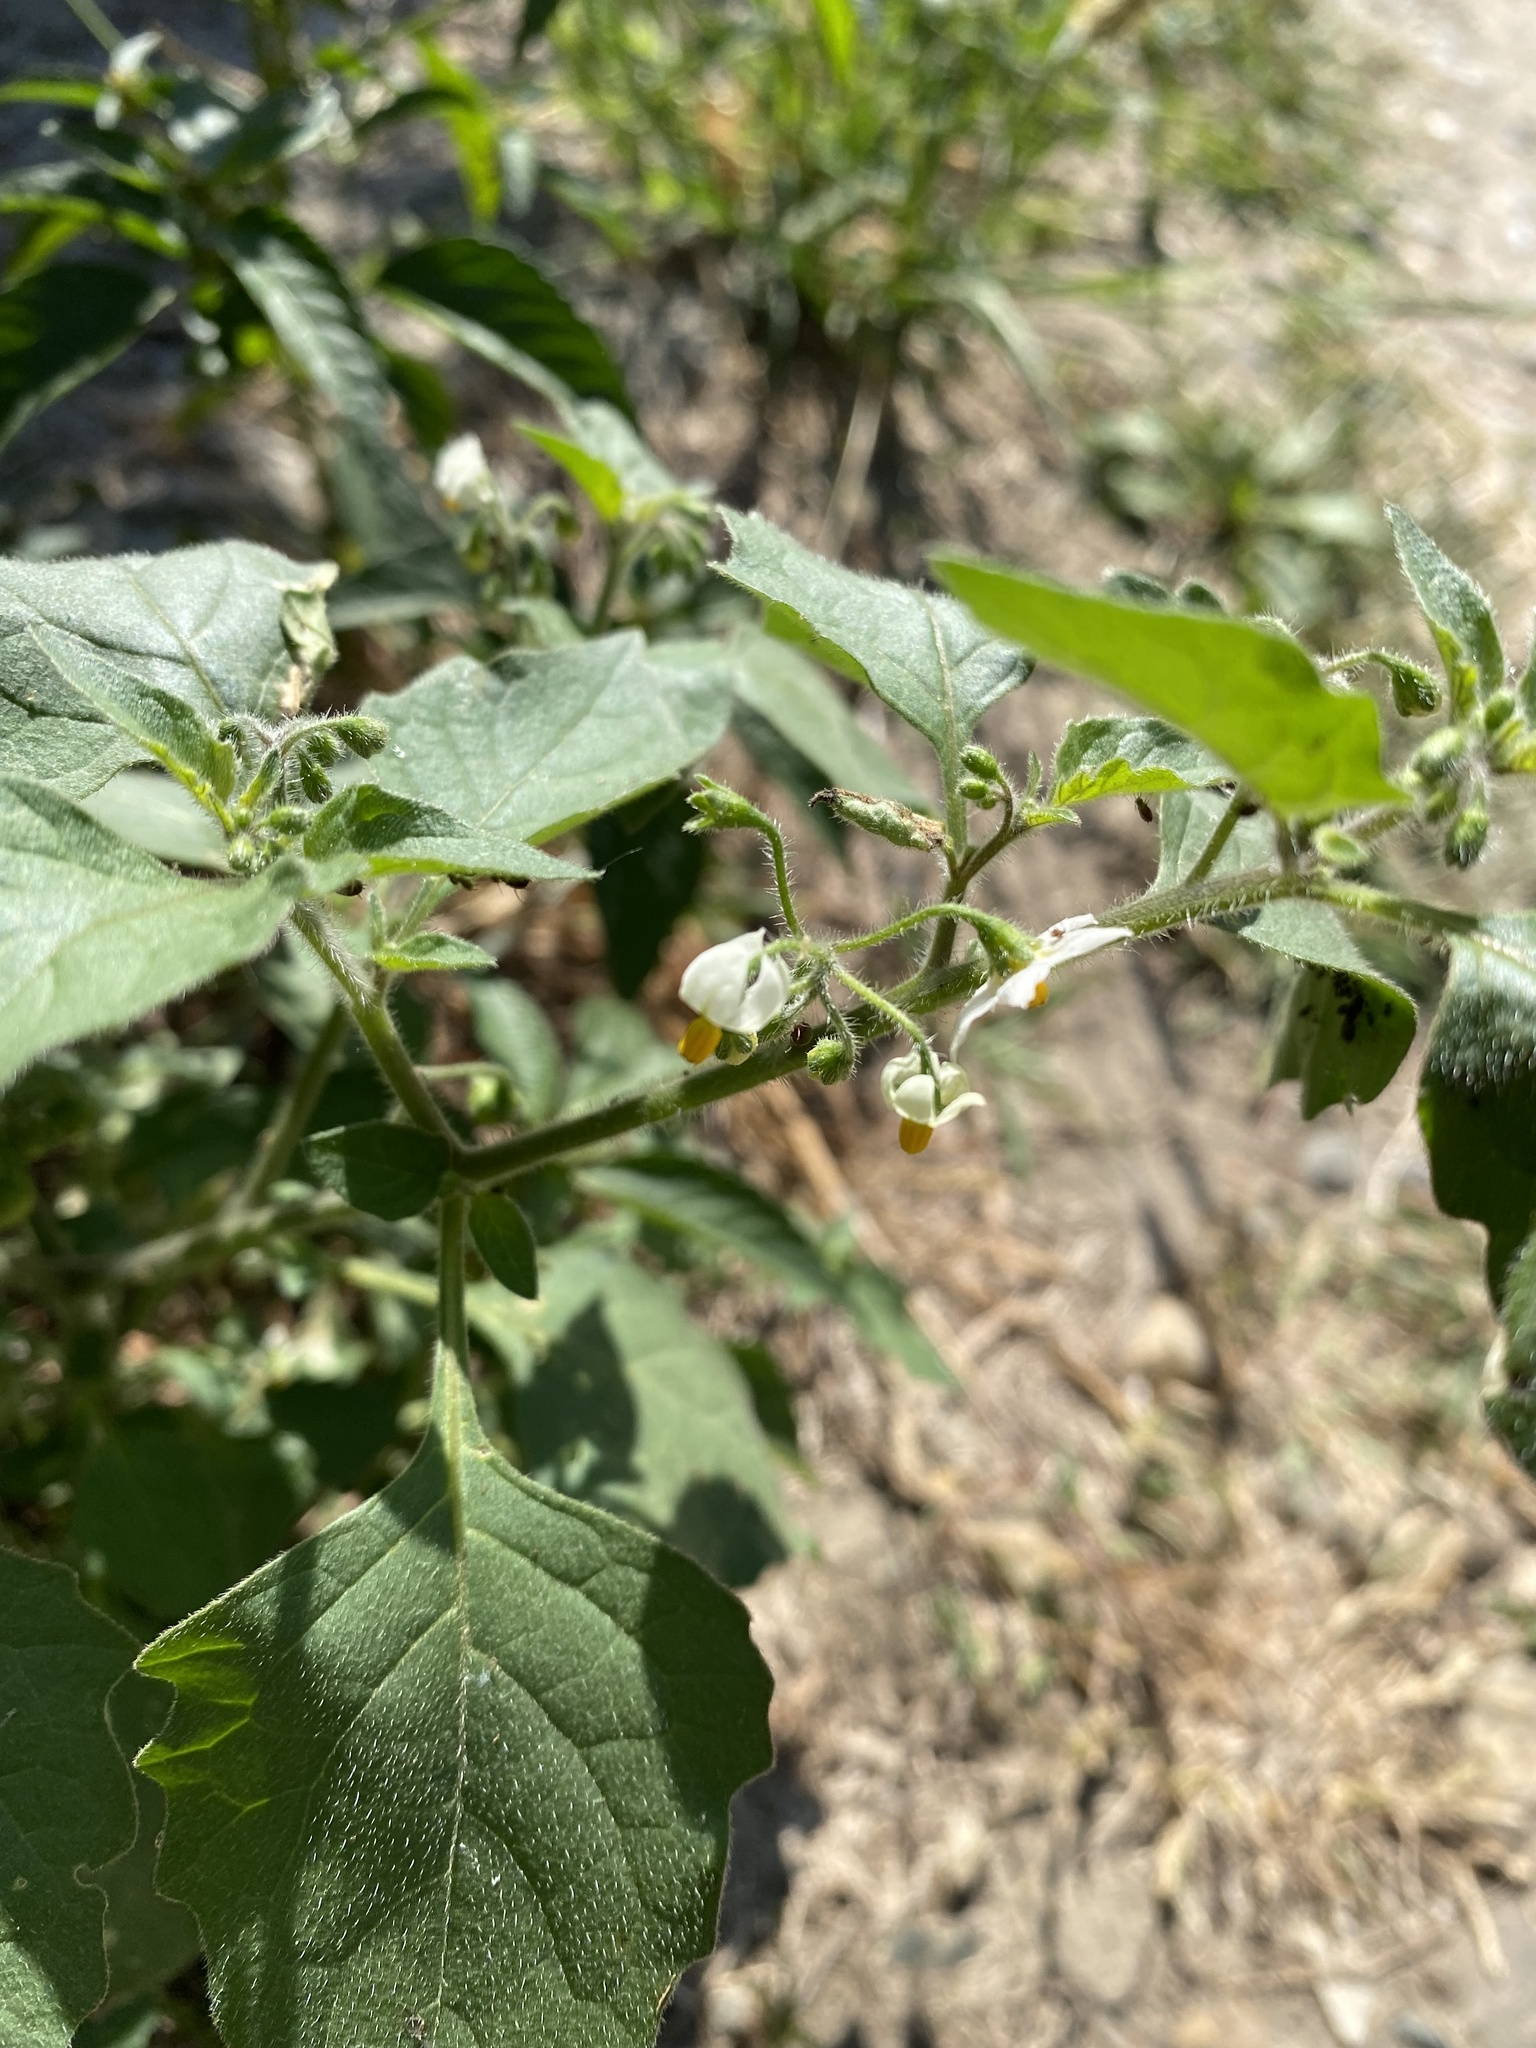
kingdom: Plantae
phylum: Tracheophyta
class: Magnoliopsida
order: Solanales
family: Solanaceae
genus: Solanum
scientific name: Solanum nigrum
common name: Black nightshade
